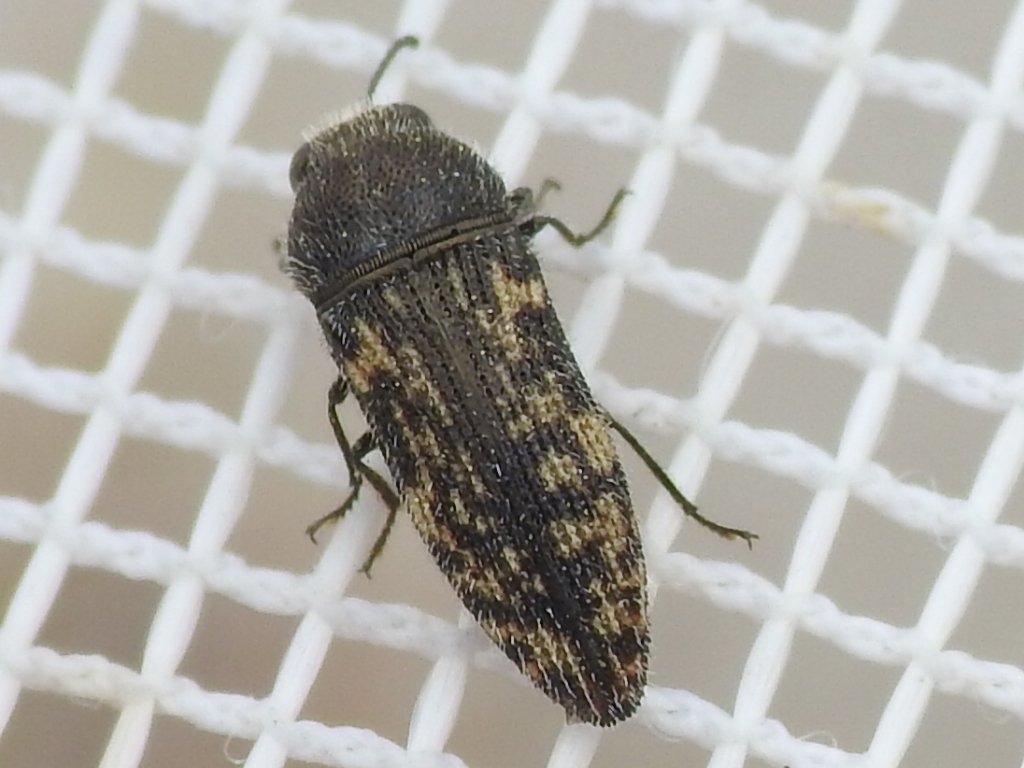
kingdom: Animalia
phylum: Arthropoda
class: Insecta
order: Coleoptera
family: Buprestidae
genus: Acmaeodera
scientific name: Acmaeodera neglecta
